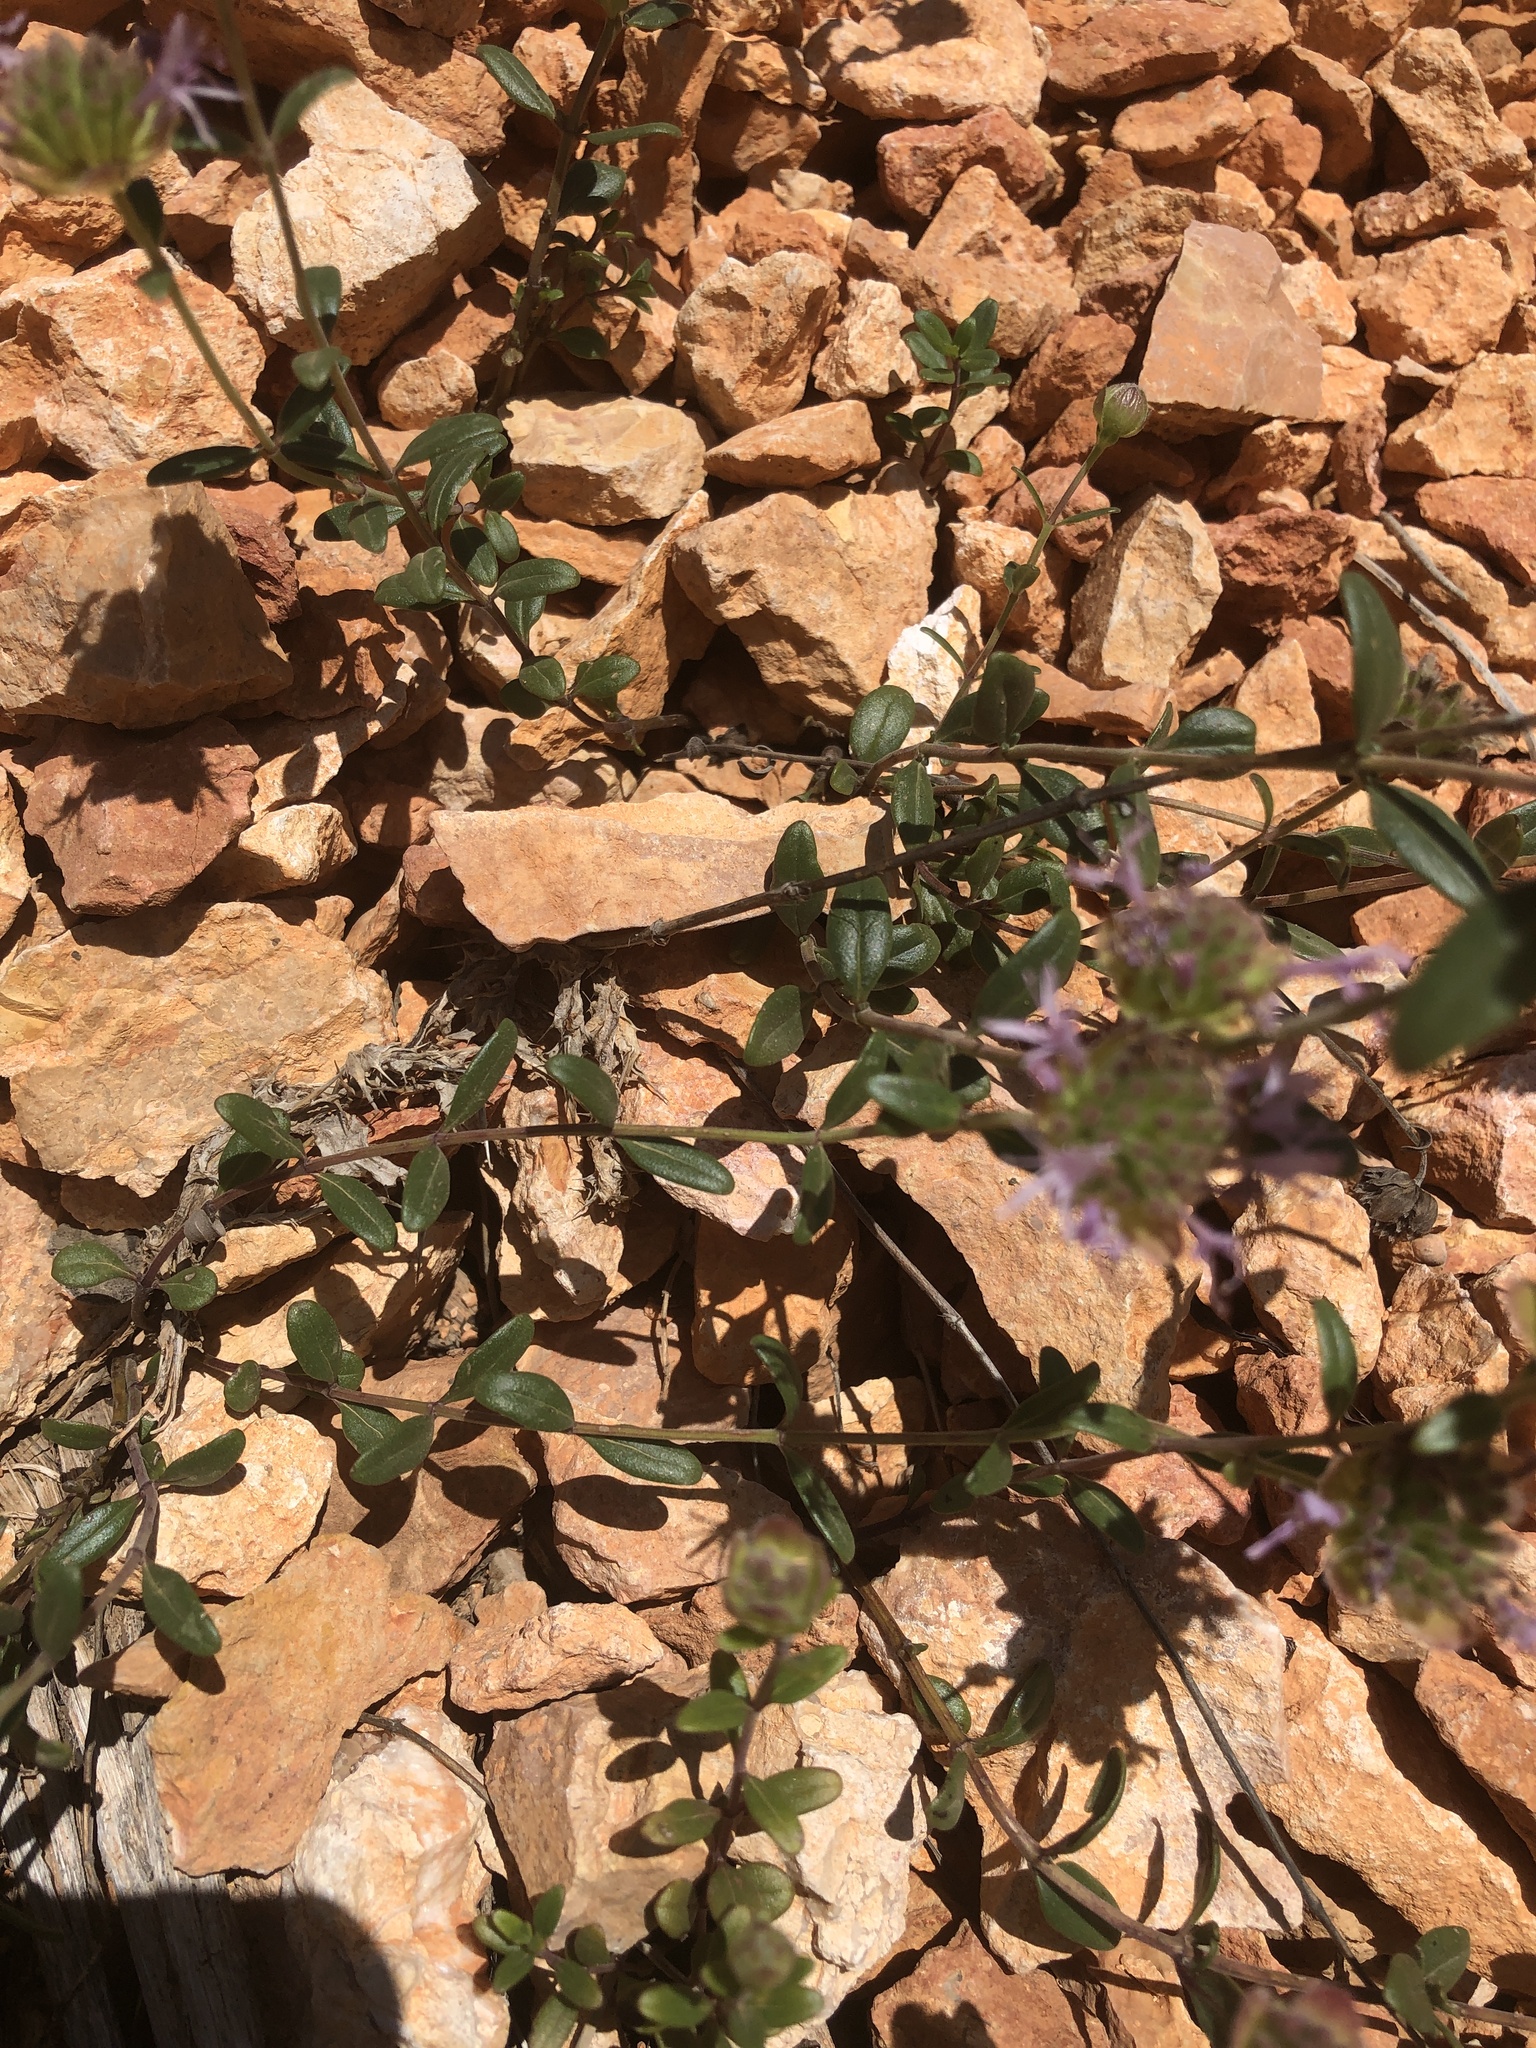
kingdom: Plantae
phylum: Tracheophyta
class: Magnoliopsida
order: Lamiales
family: Lamiaceae
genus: Monardella
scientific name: Monardella odoratissima
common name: Pacific monardella
